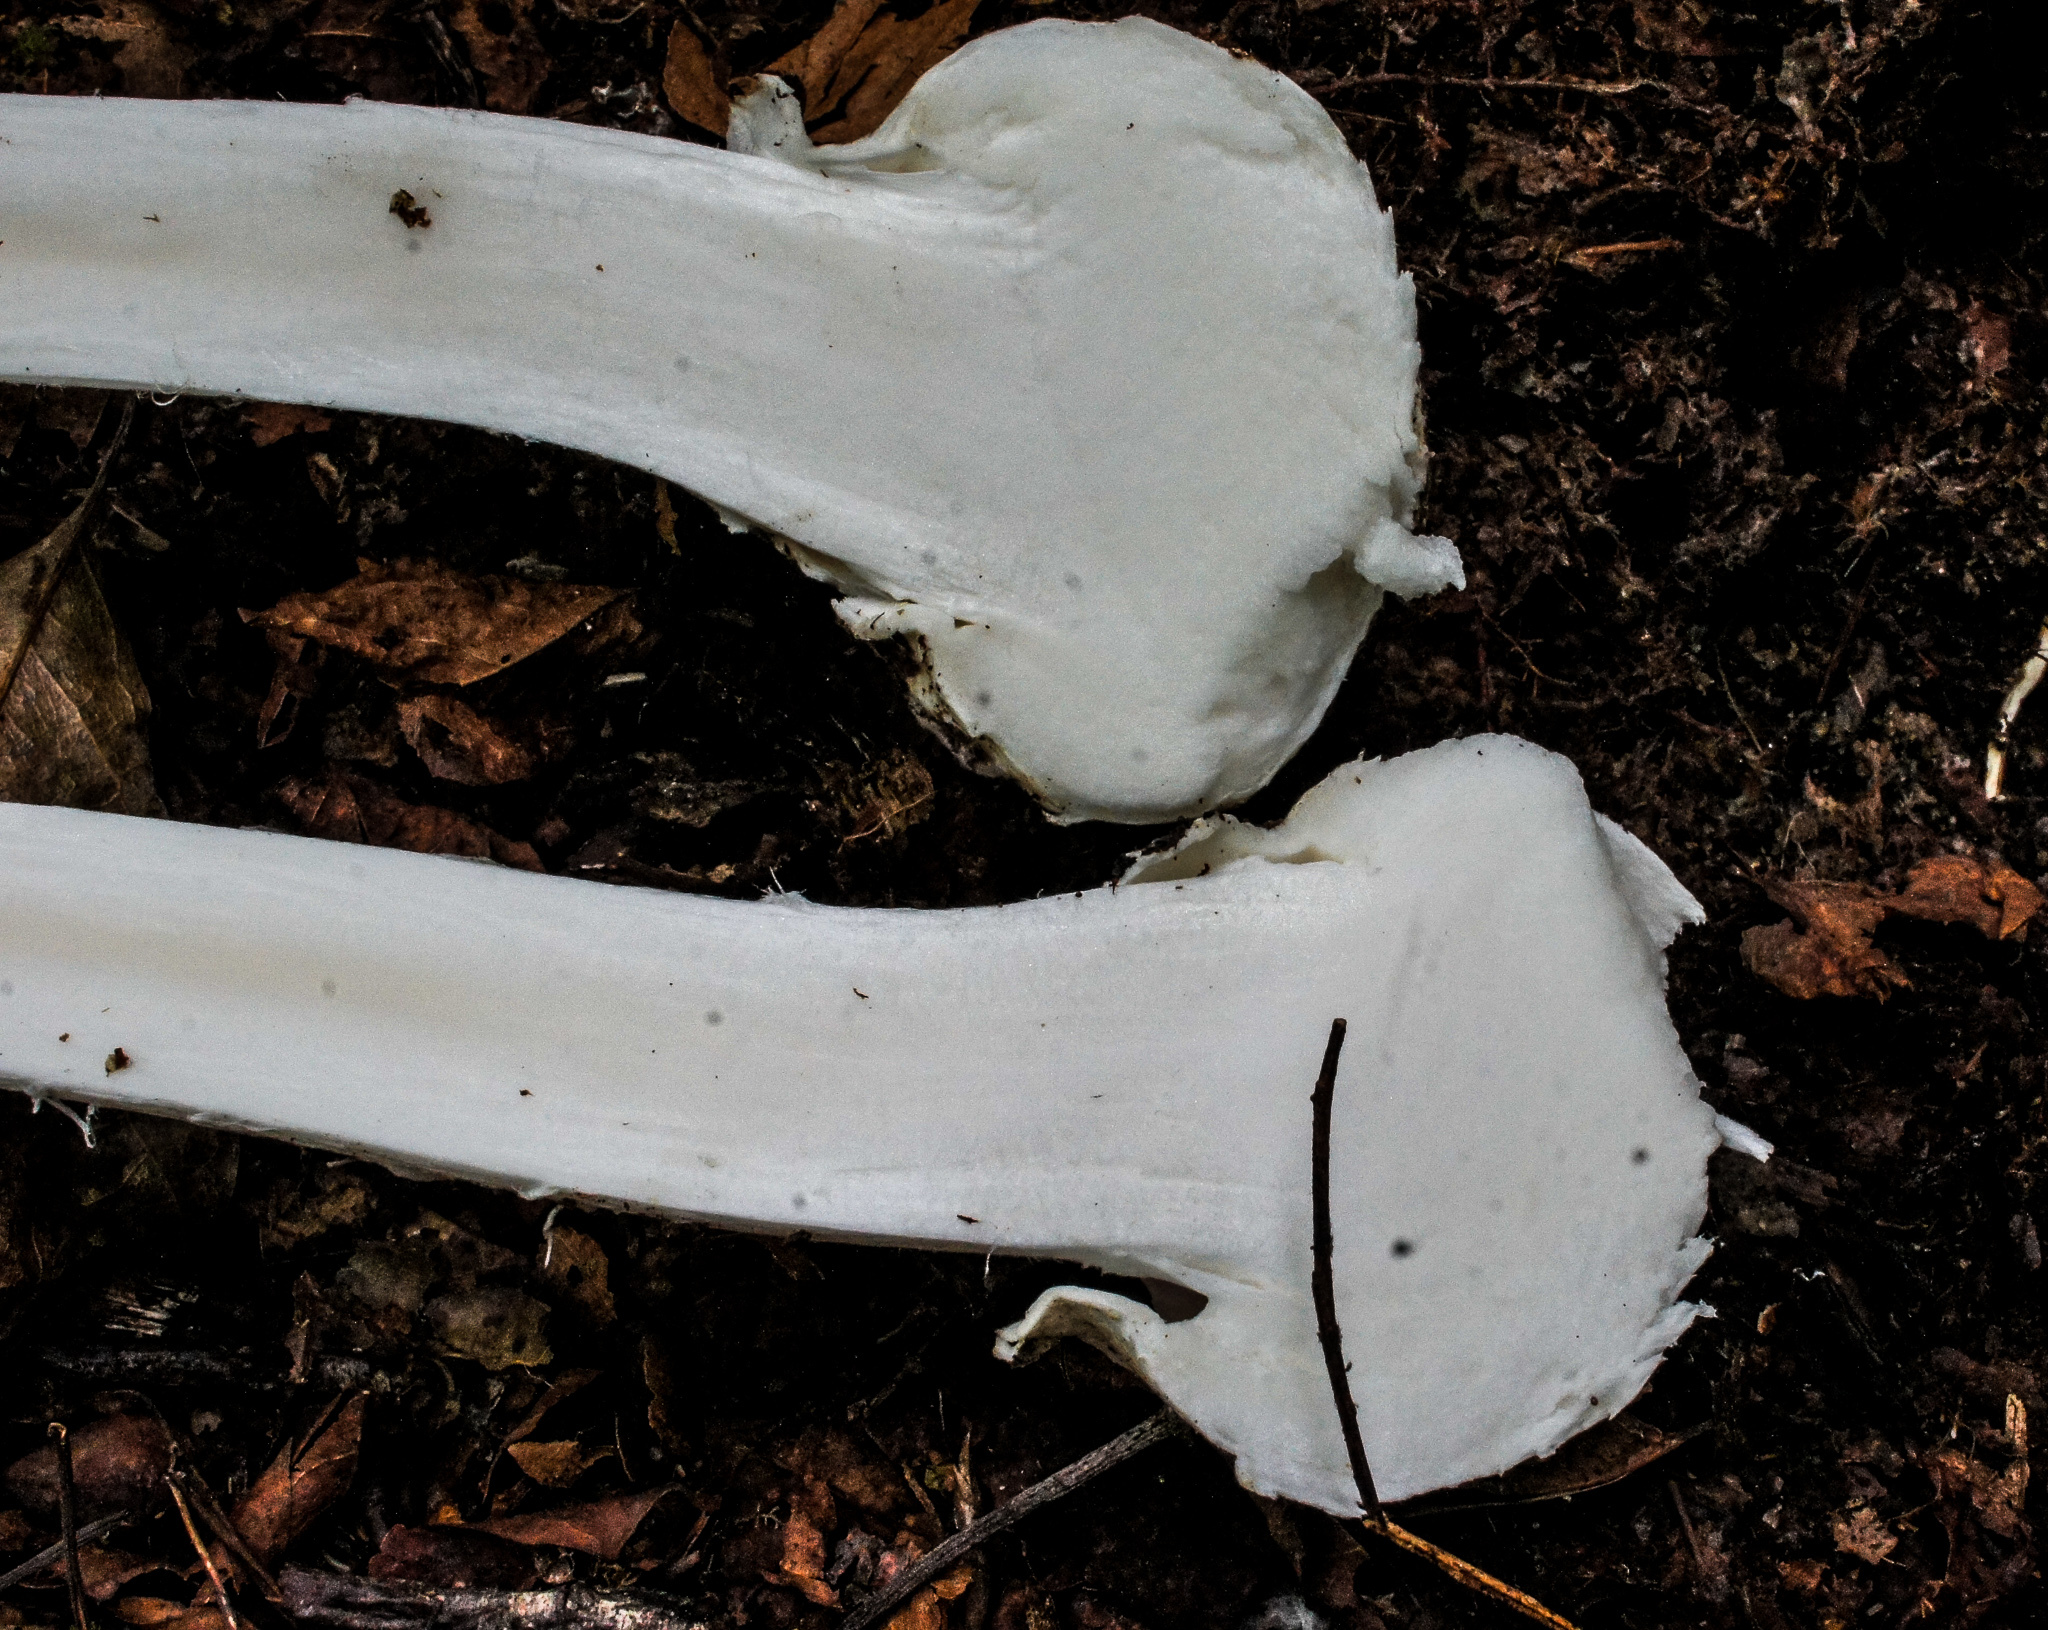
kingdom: Fungi
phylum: Basidiomycota
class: Agaricomycetes
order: Agaricales
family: Amanitaceae
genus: Amanita
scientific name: Amanita bisporigera
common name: Eastern north american destroying angel
